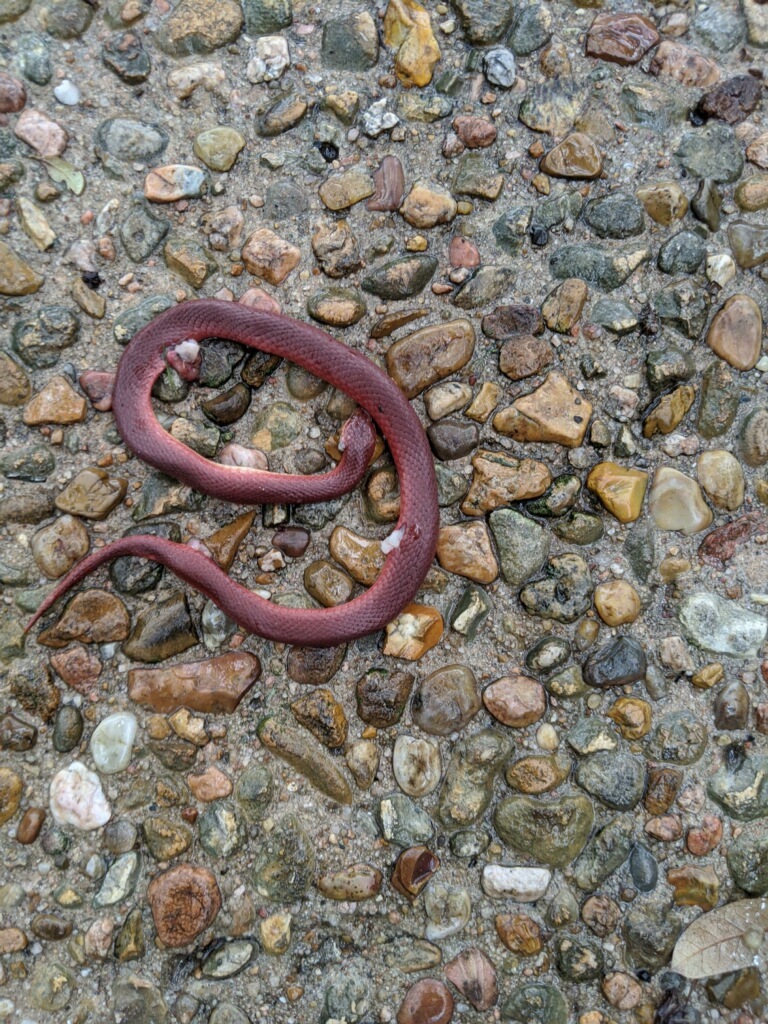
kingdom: Animalia
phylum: Chordata
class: Squamata
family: Colubridae
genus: Virginia
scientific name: Virginia valeriae
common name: Smooth earth snake
